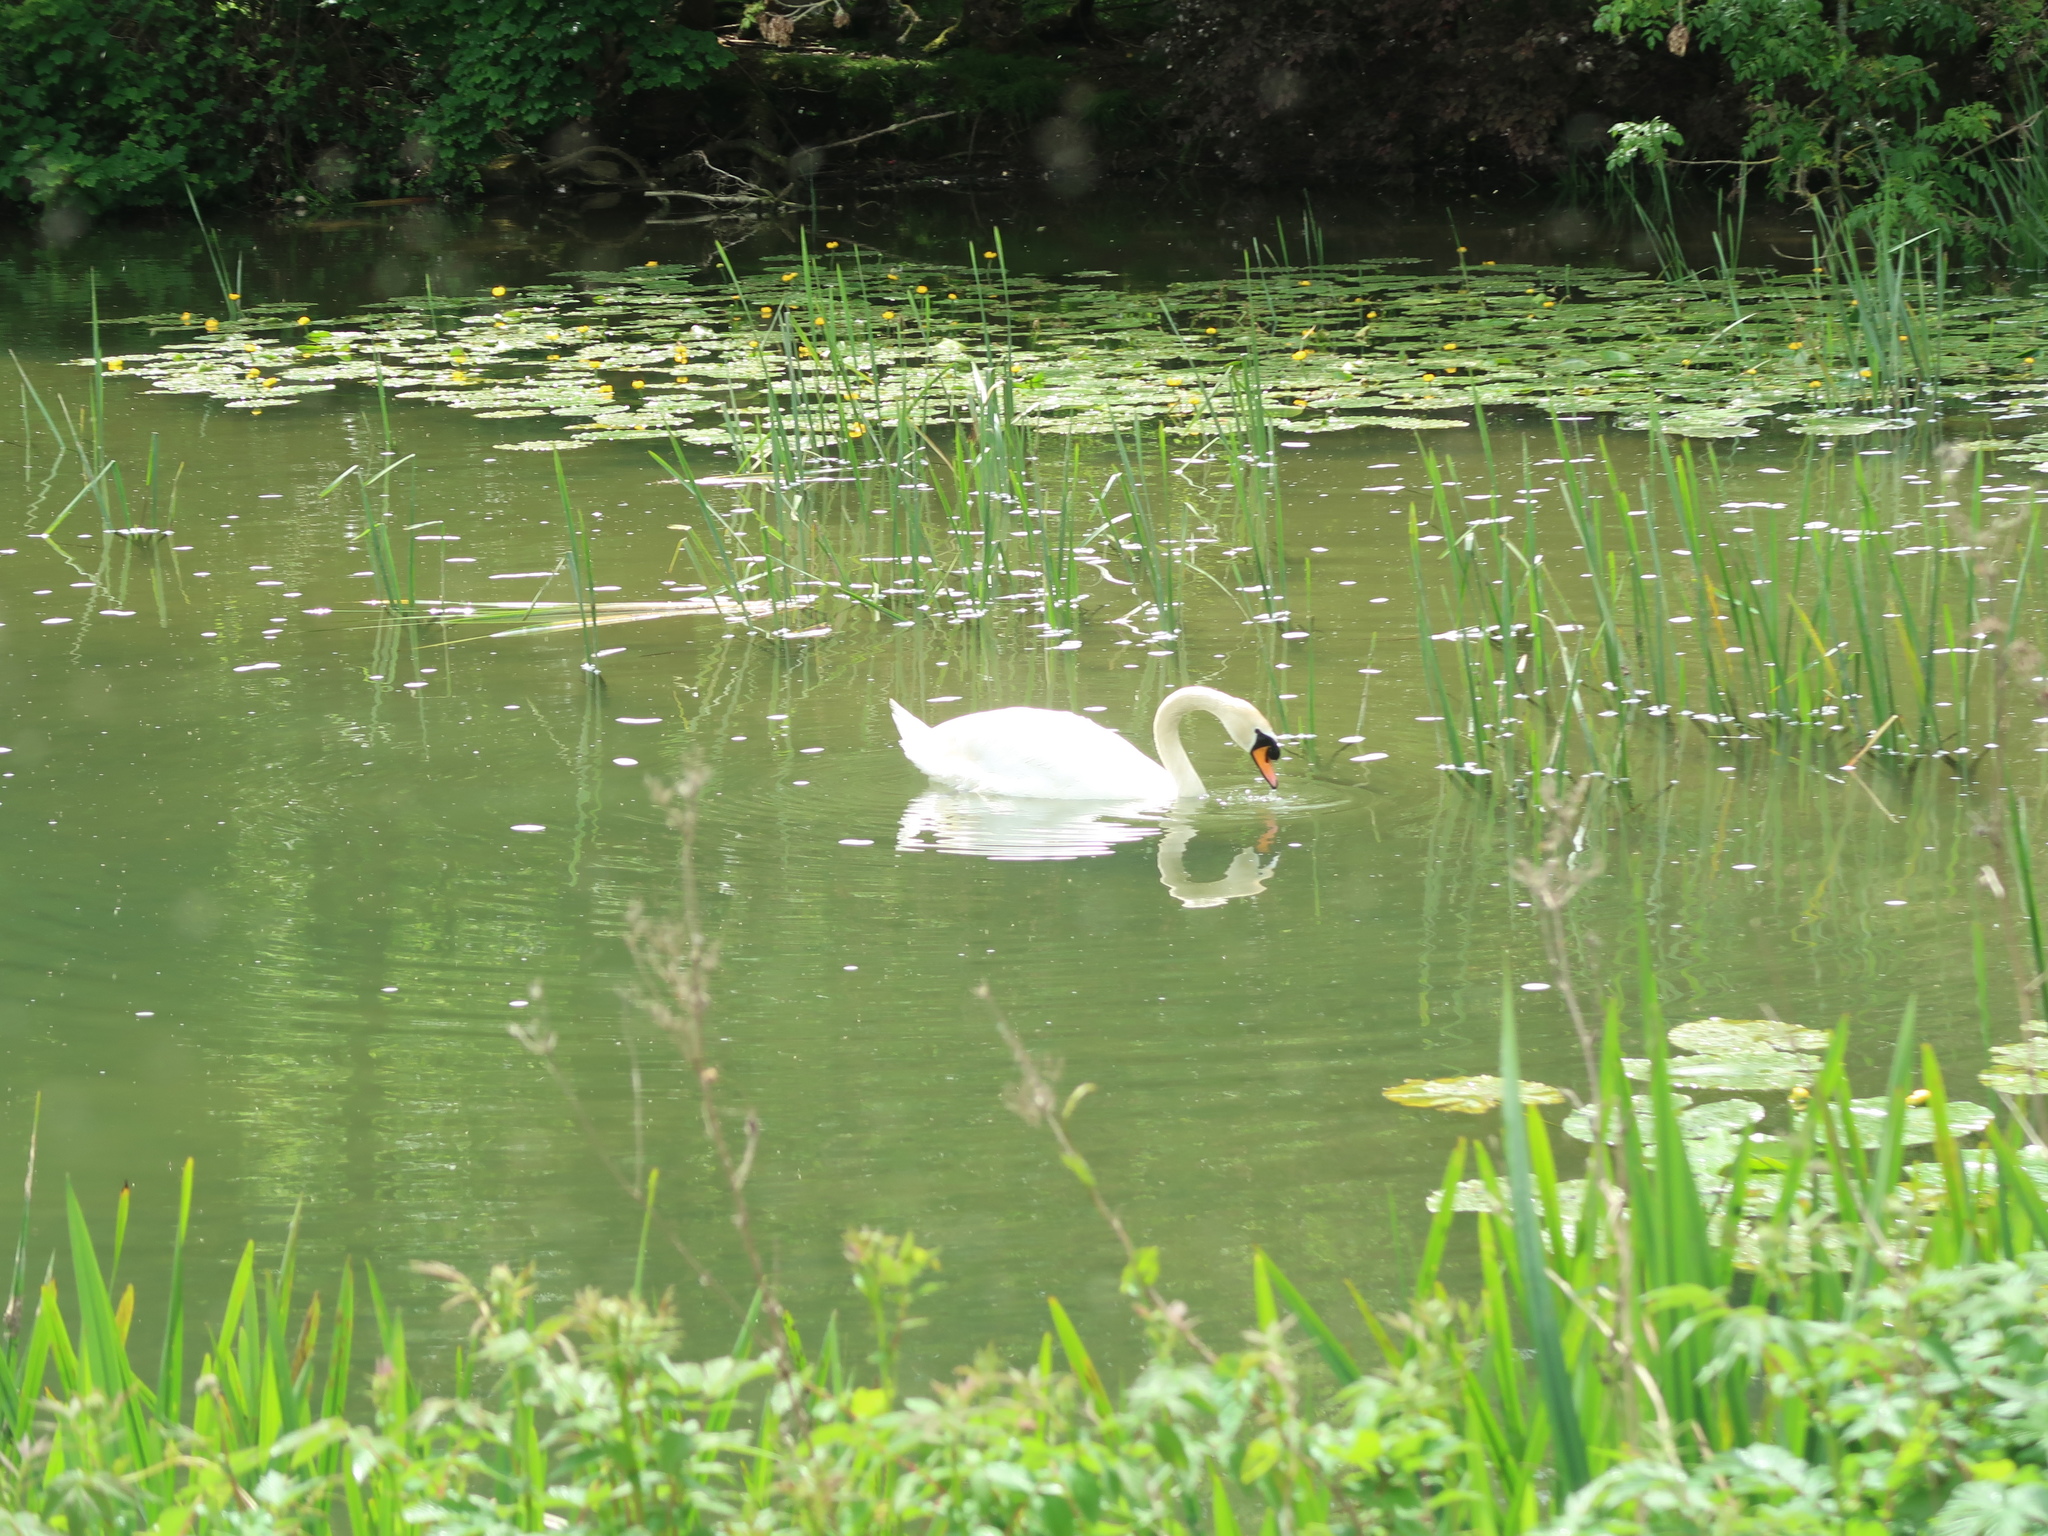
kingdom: Animalia
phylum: Chordata
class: Aves
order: Anseriformes
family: Anatidae
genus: Cygnus
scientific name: Cygnus olor
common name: Mute swan
